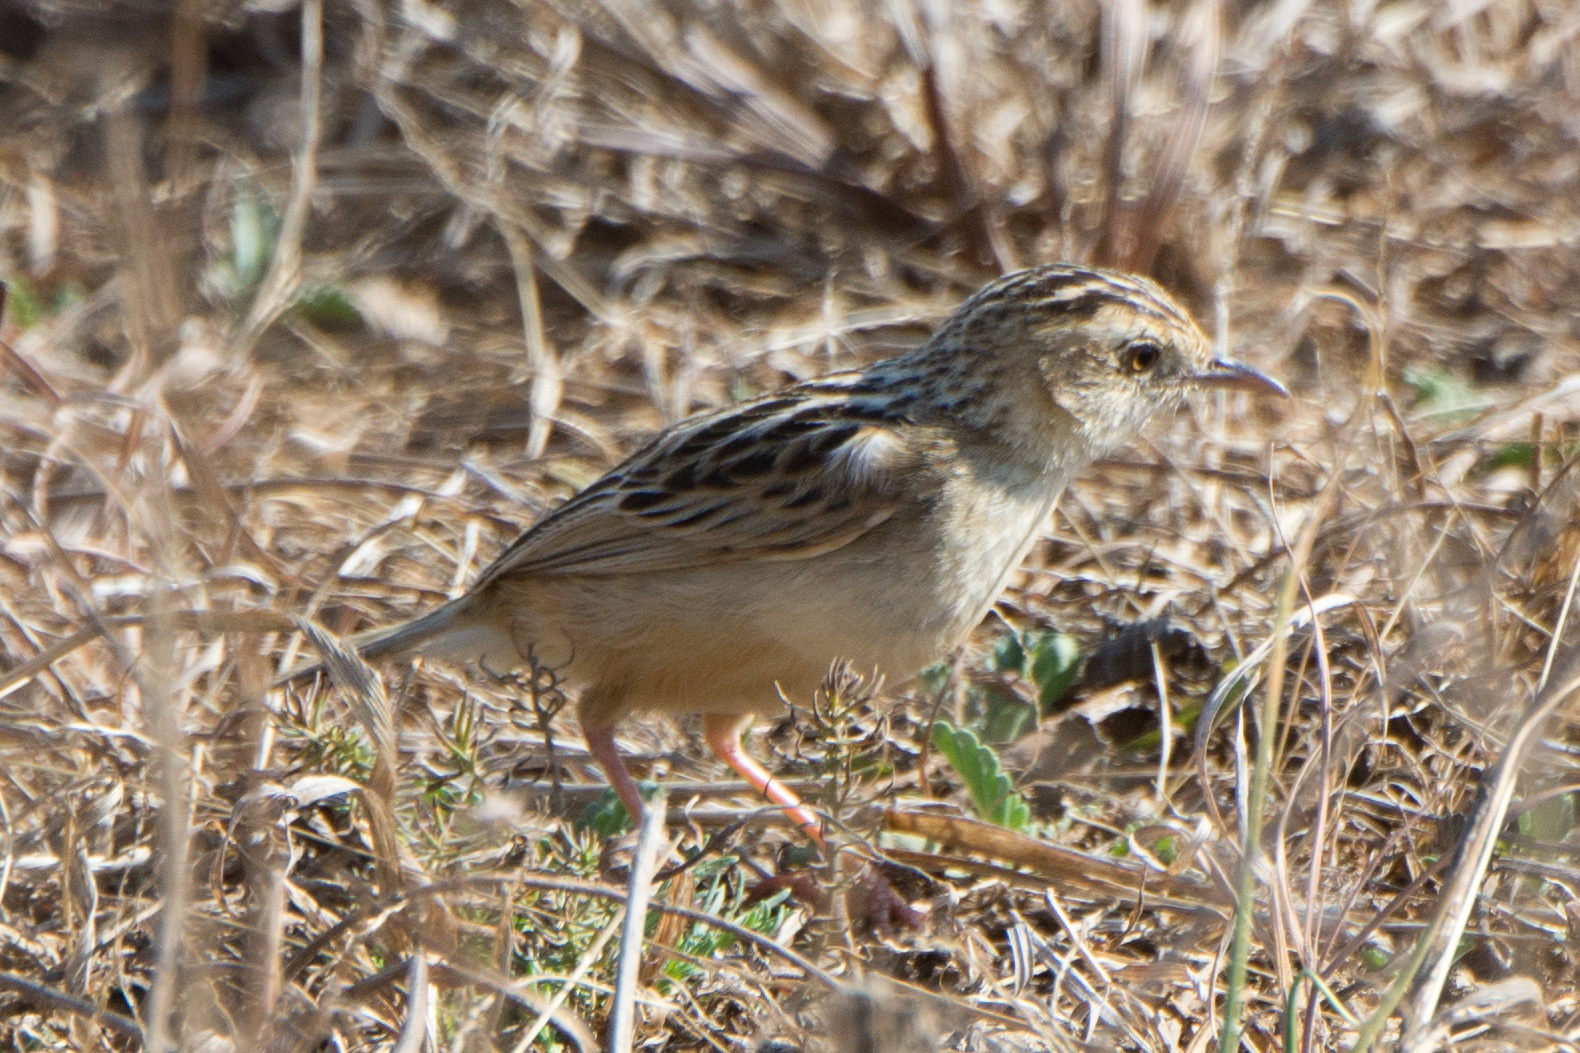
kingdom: Animalia
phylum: Chordata
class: Aves
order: Passeriformes
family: Cisticolidae
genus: Cisticola
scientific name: Cisticola juncidis
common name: Zitting cisticola
